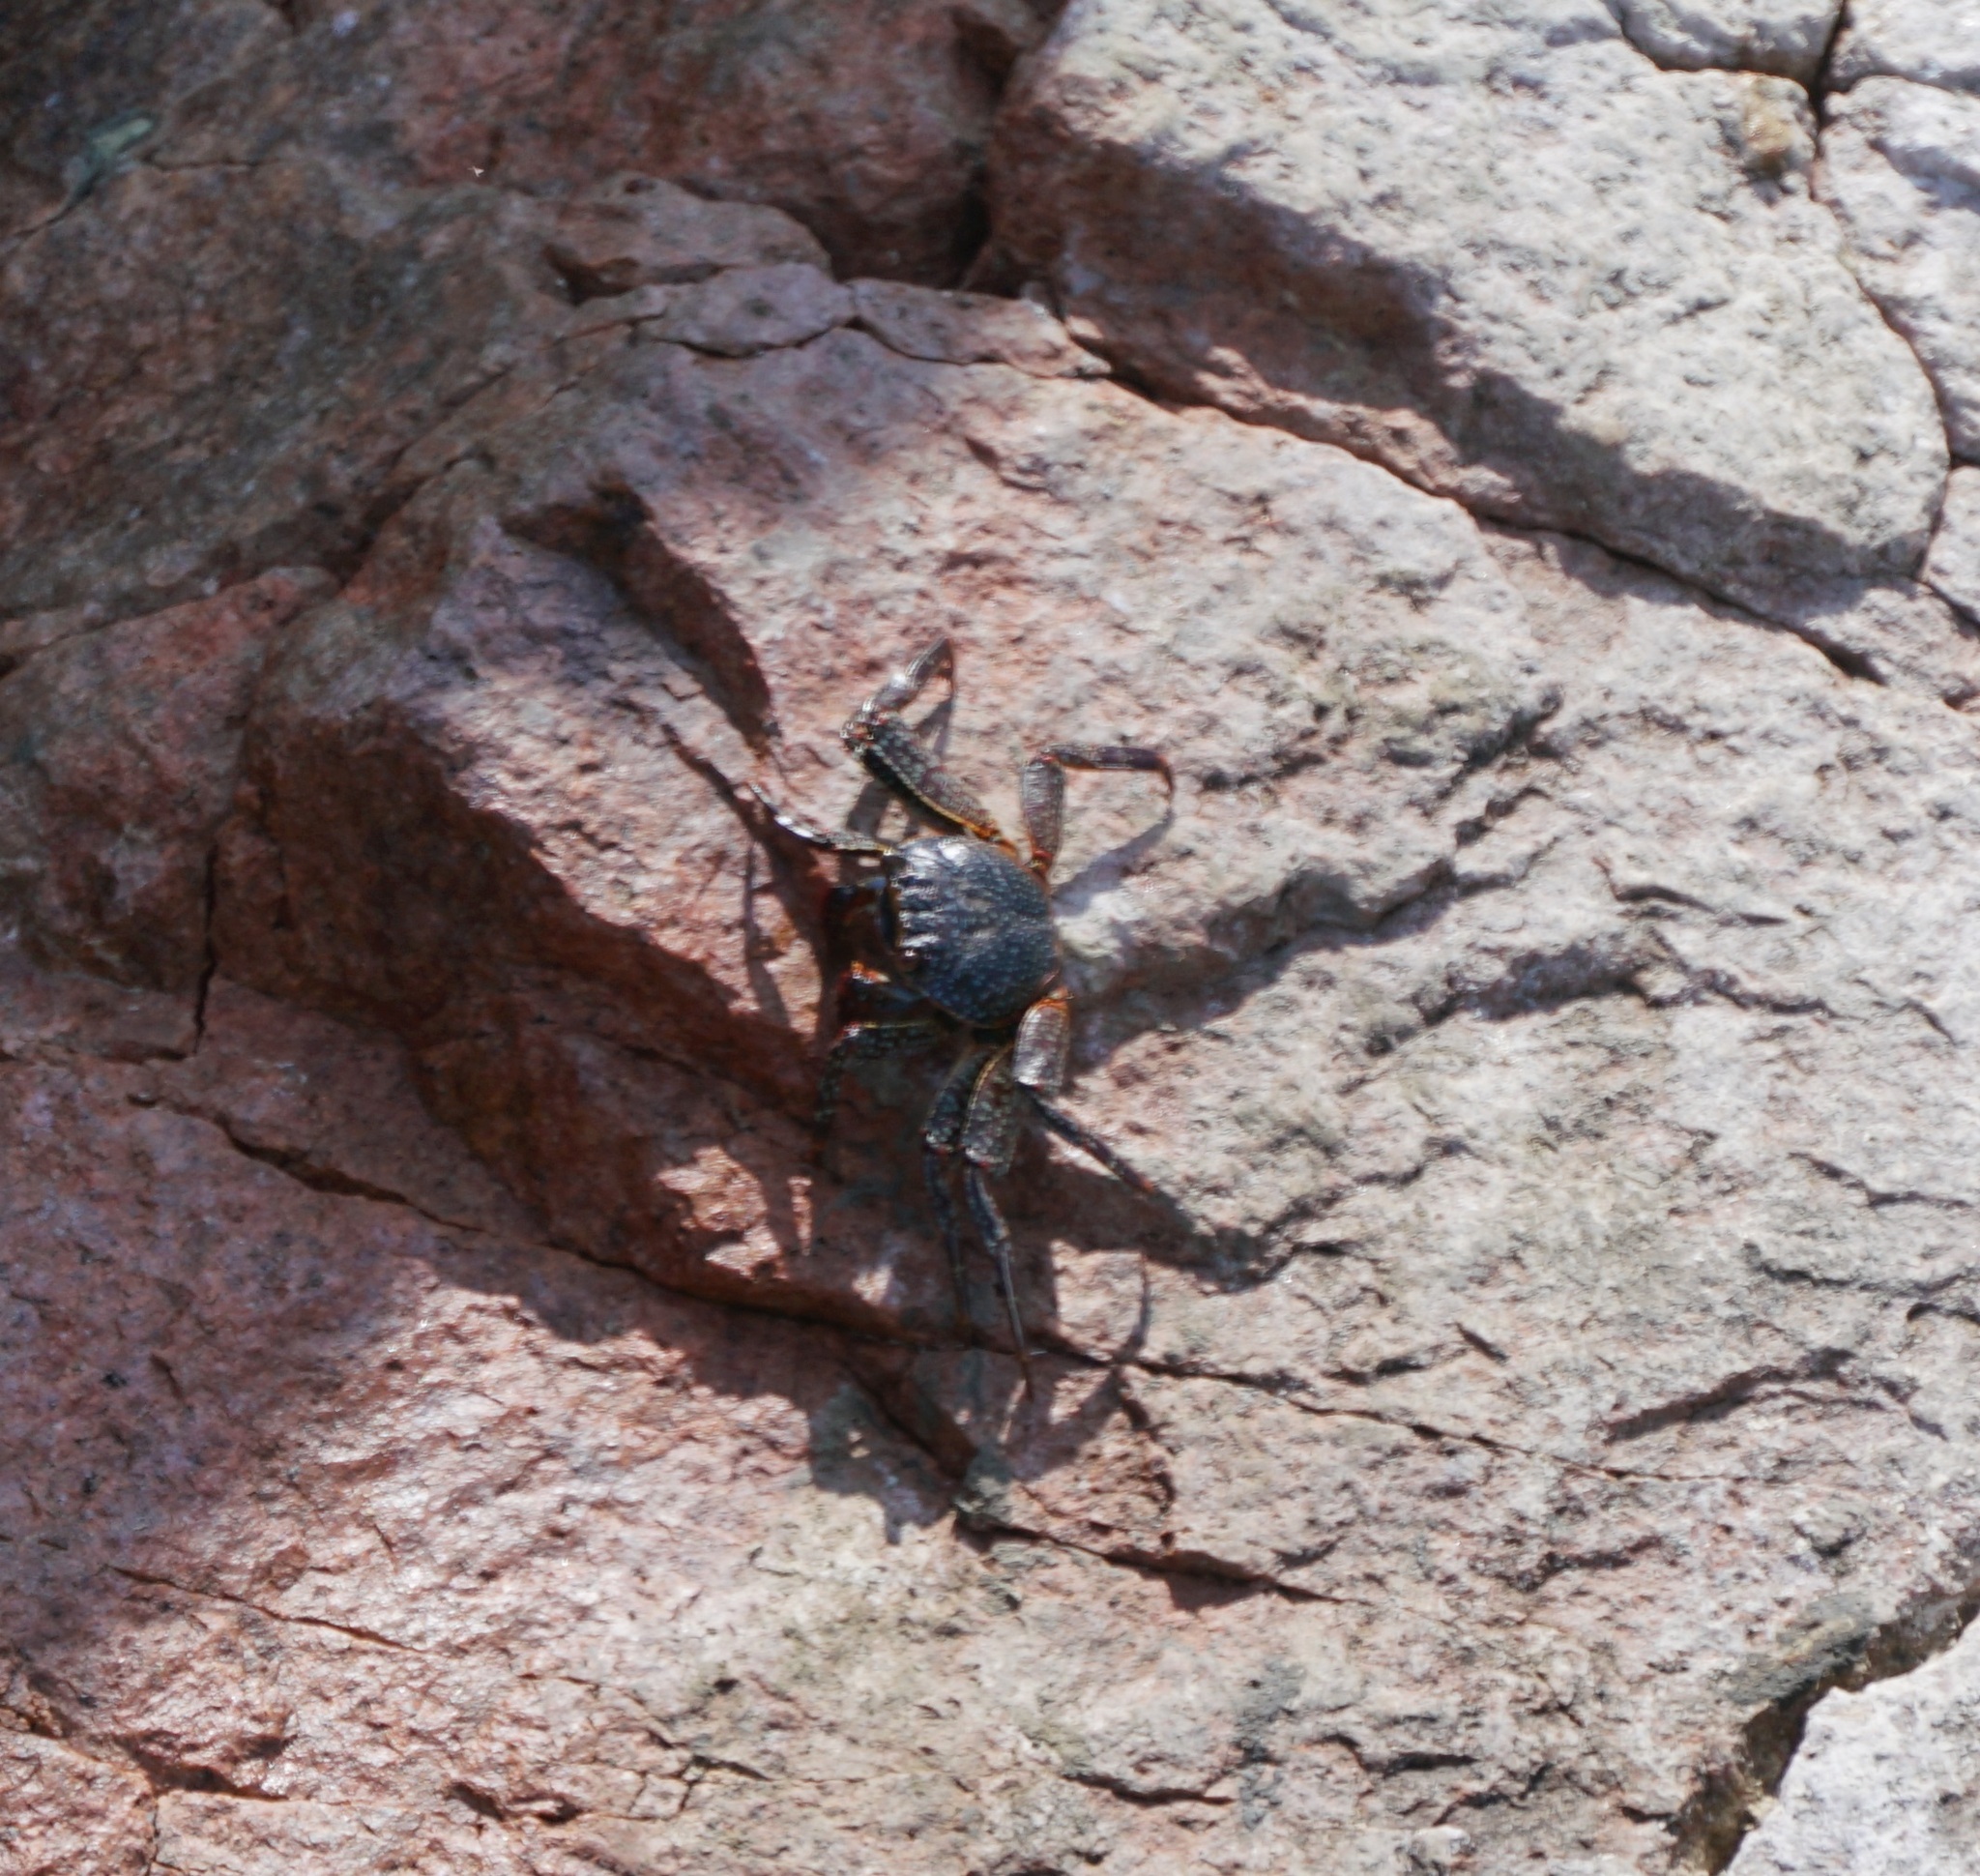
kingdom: Animalia
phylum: Arthropoda
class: Malacostraca
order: Decapoda
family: Grapsidae
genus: Grapsus
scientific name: Grapsus grapsus
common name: Sally lightfoot
